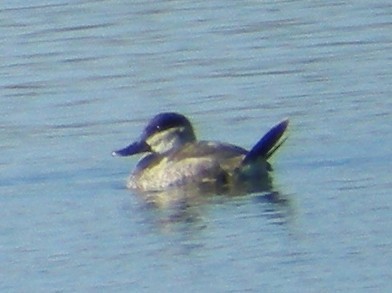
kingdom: Animalia
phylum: Chordata
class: Aves
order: Anseriformes
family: Anatidae
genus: Oxyura
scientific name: Oxyura jamaicensis
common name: Ruddy duck
